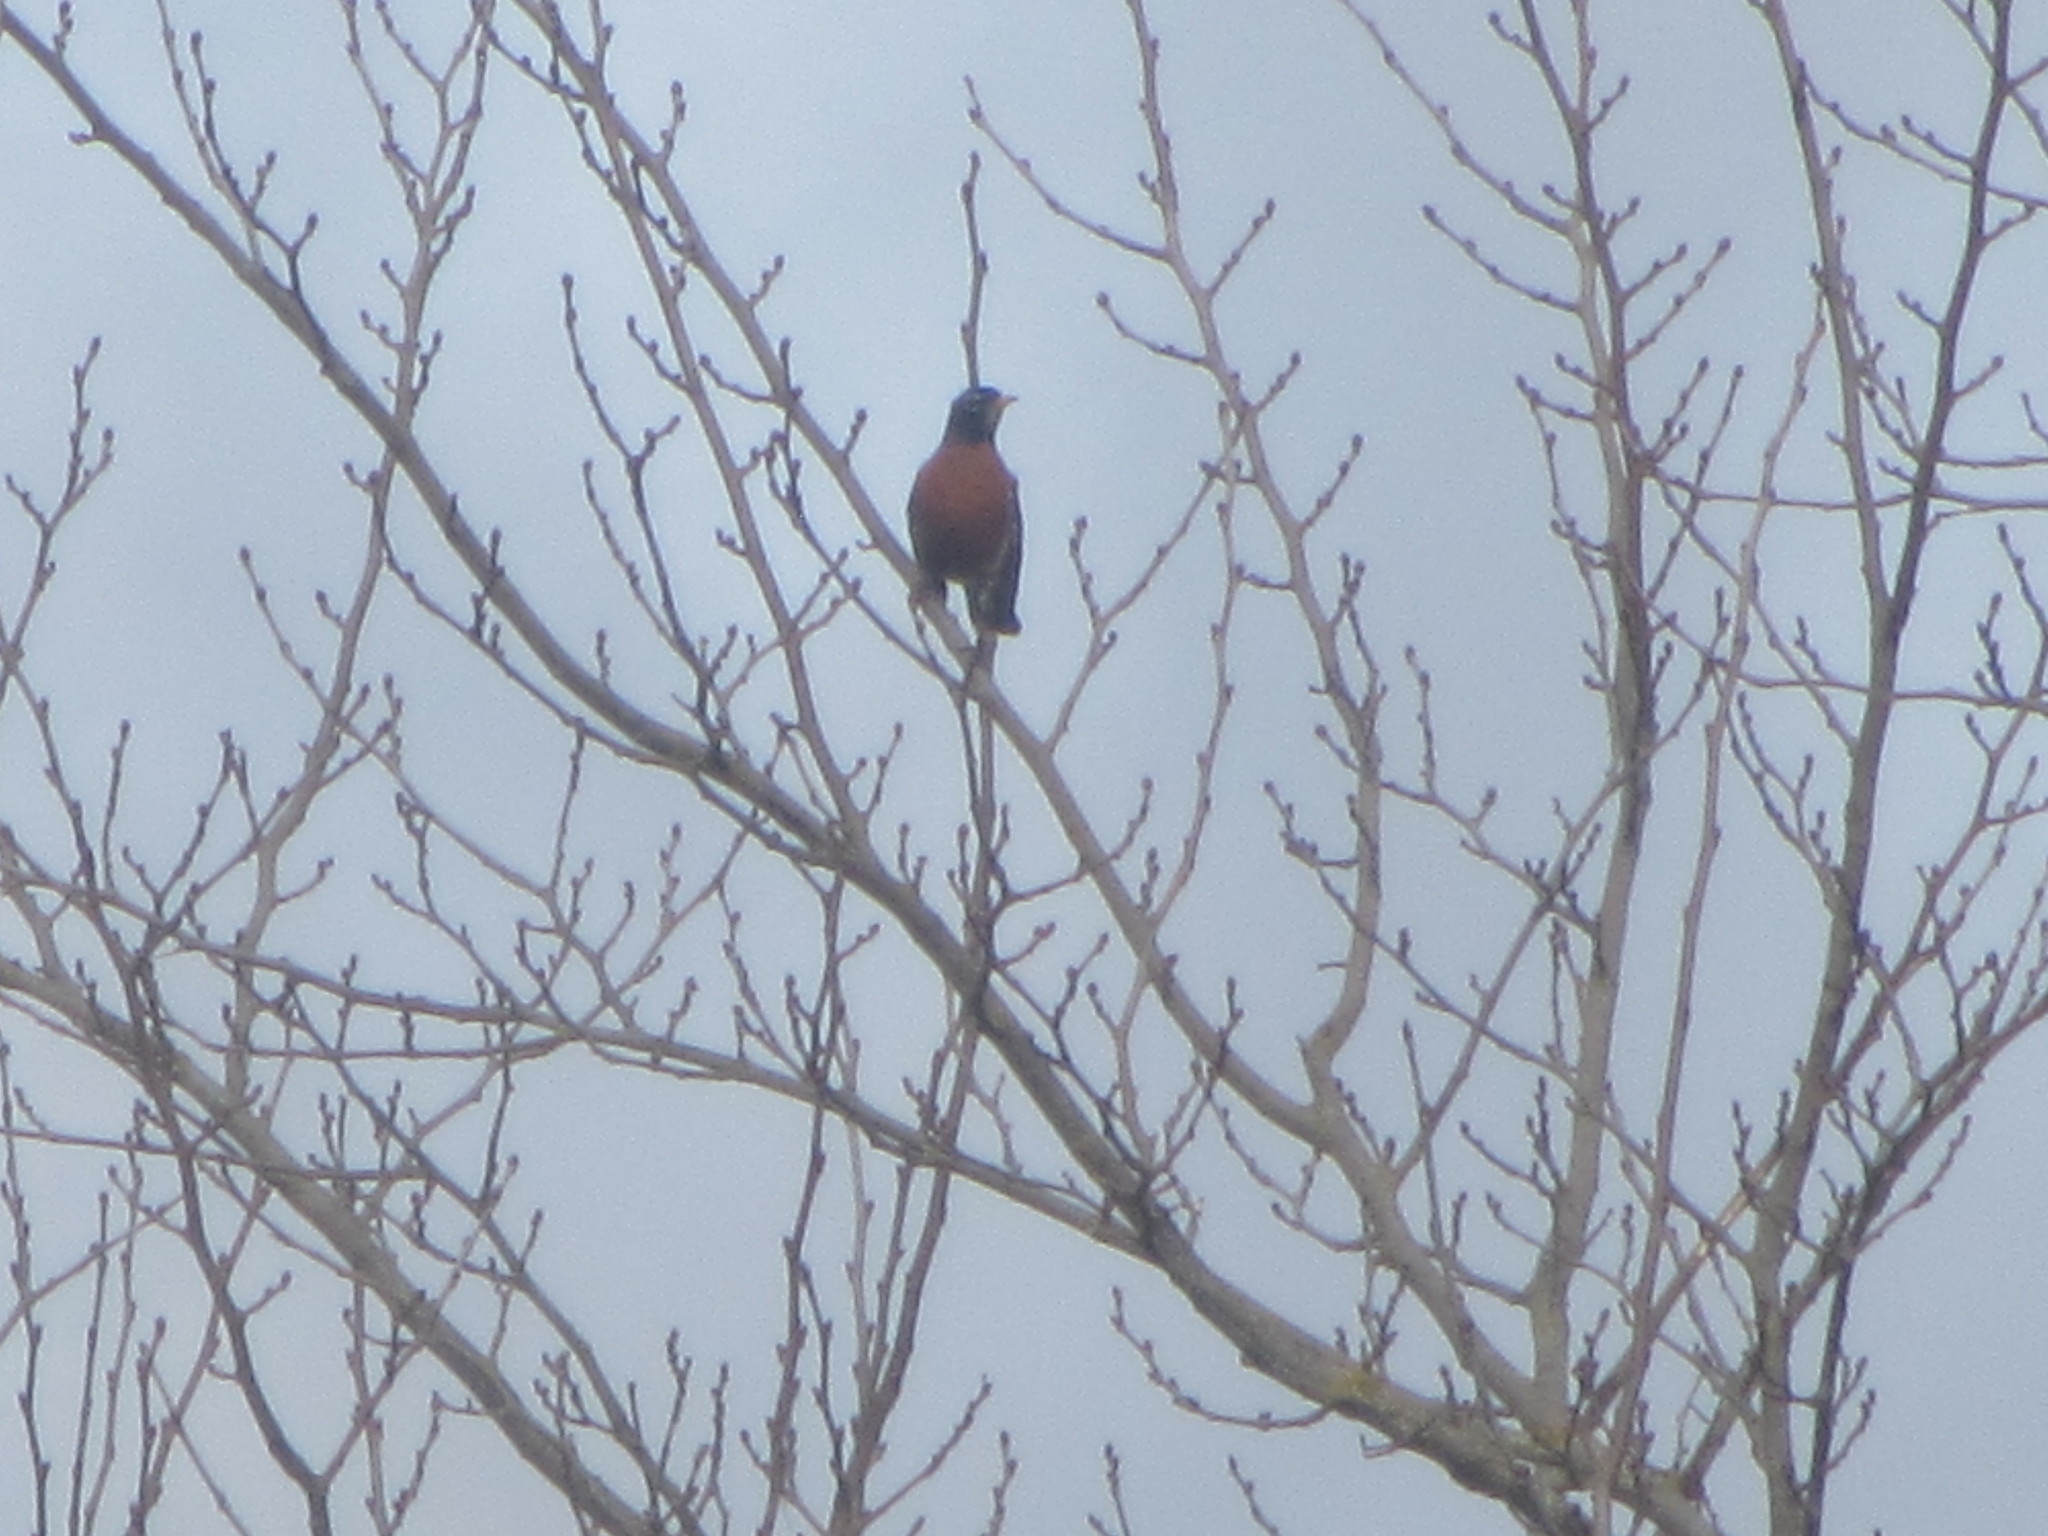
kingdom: Animalia
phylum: Chordata
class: Aves
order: Passeriformes
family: Turdidae
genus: Turdus
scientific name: Turdus migratorius
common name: American robin
